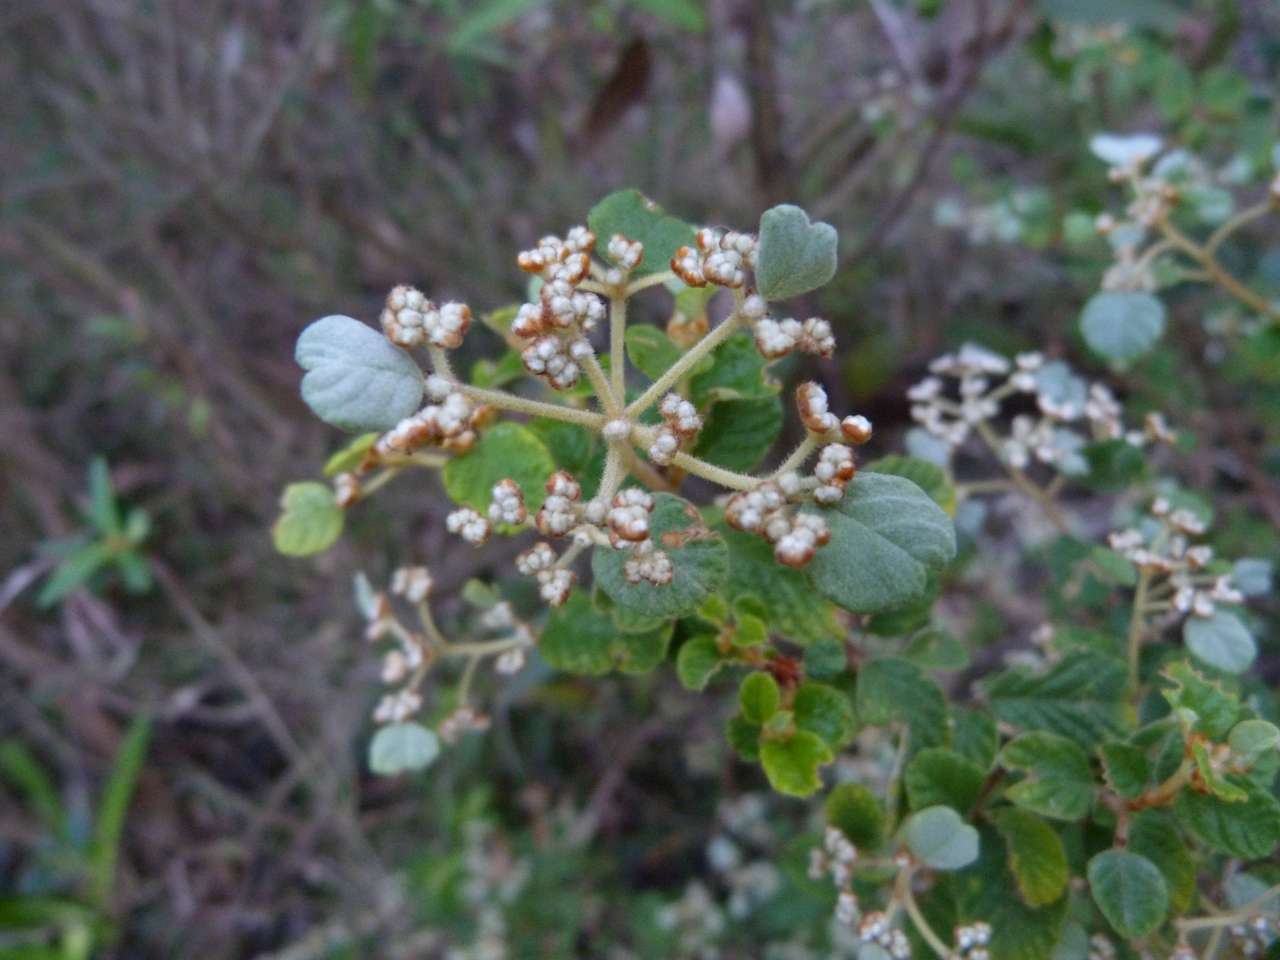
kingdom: Plantae
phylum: Tracheophyta
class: Magnoliopsida
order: Rosales
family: Rhamnaceae
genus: Spyridium
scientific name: Spyridium parvifolium
